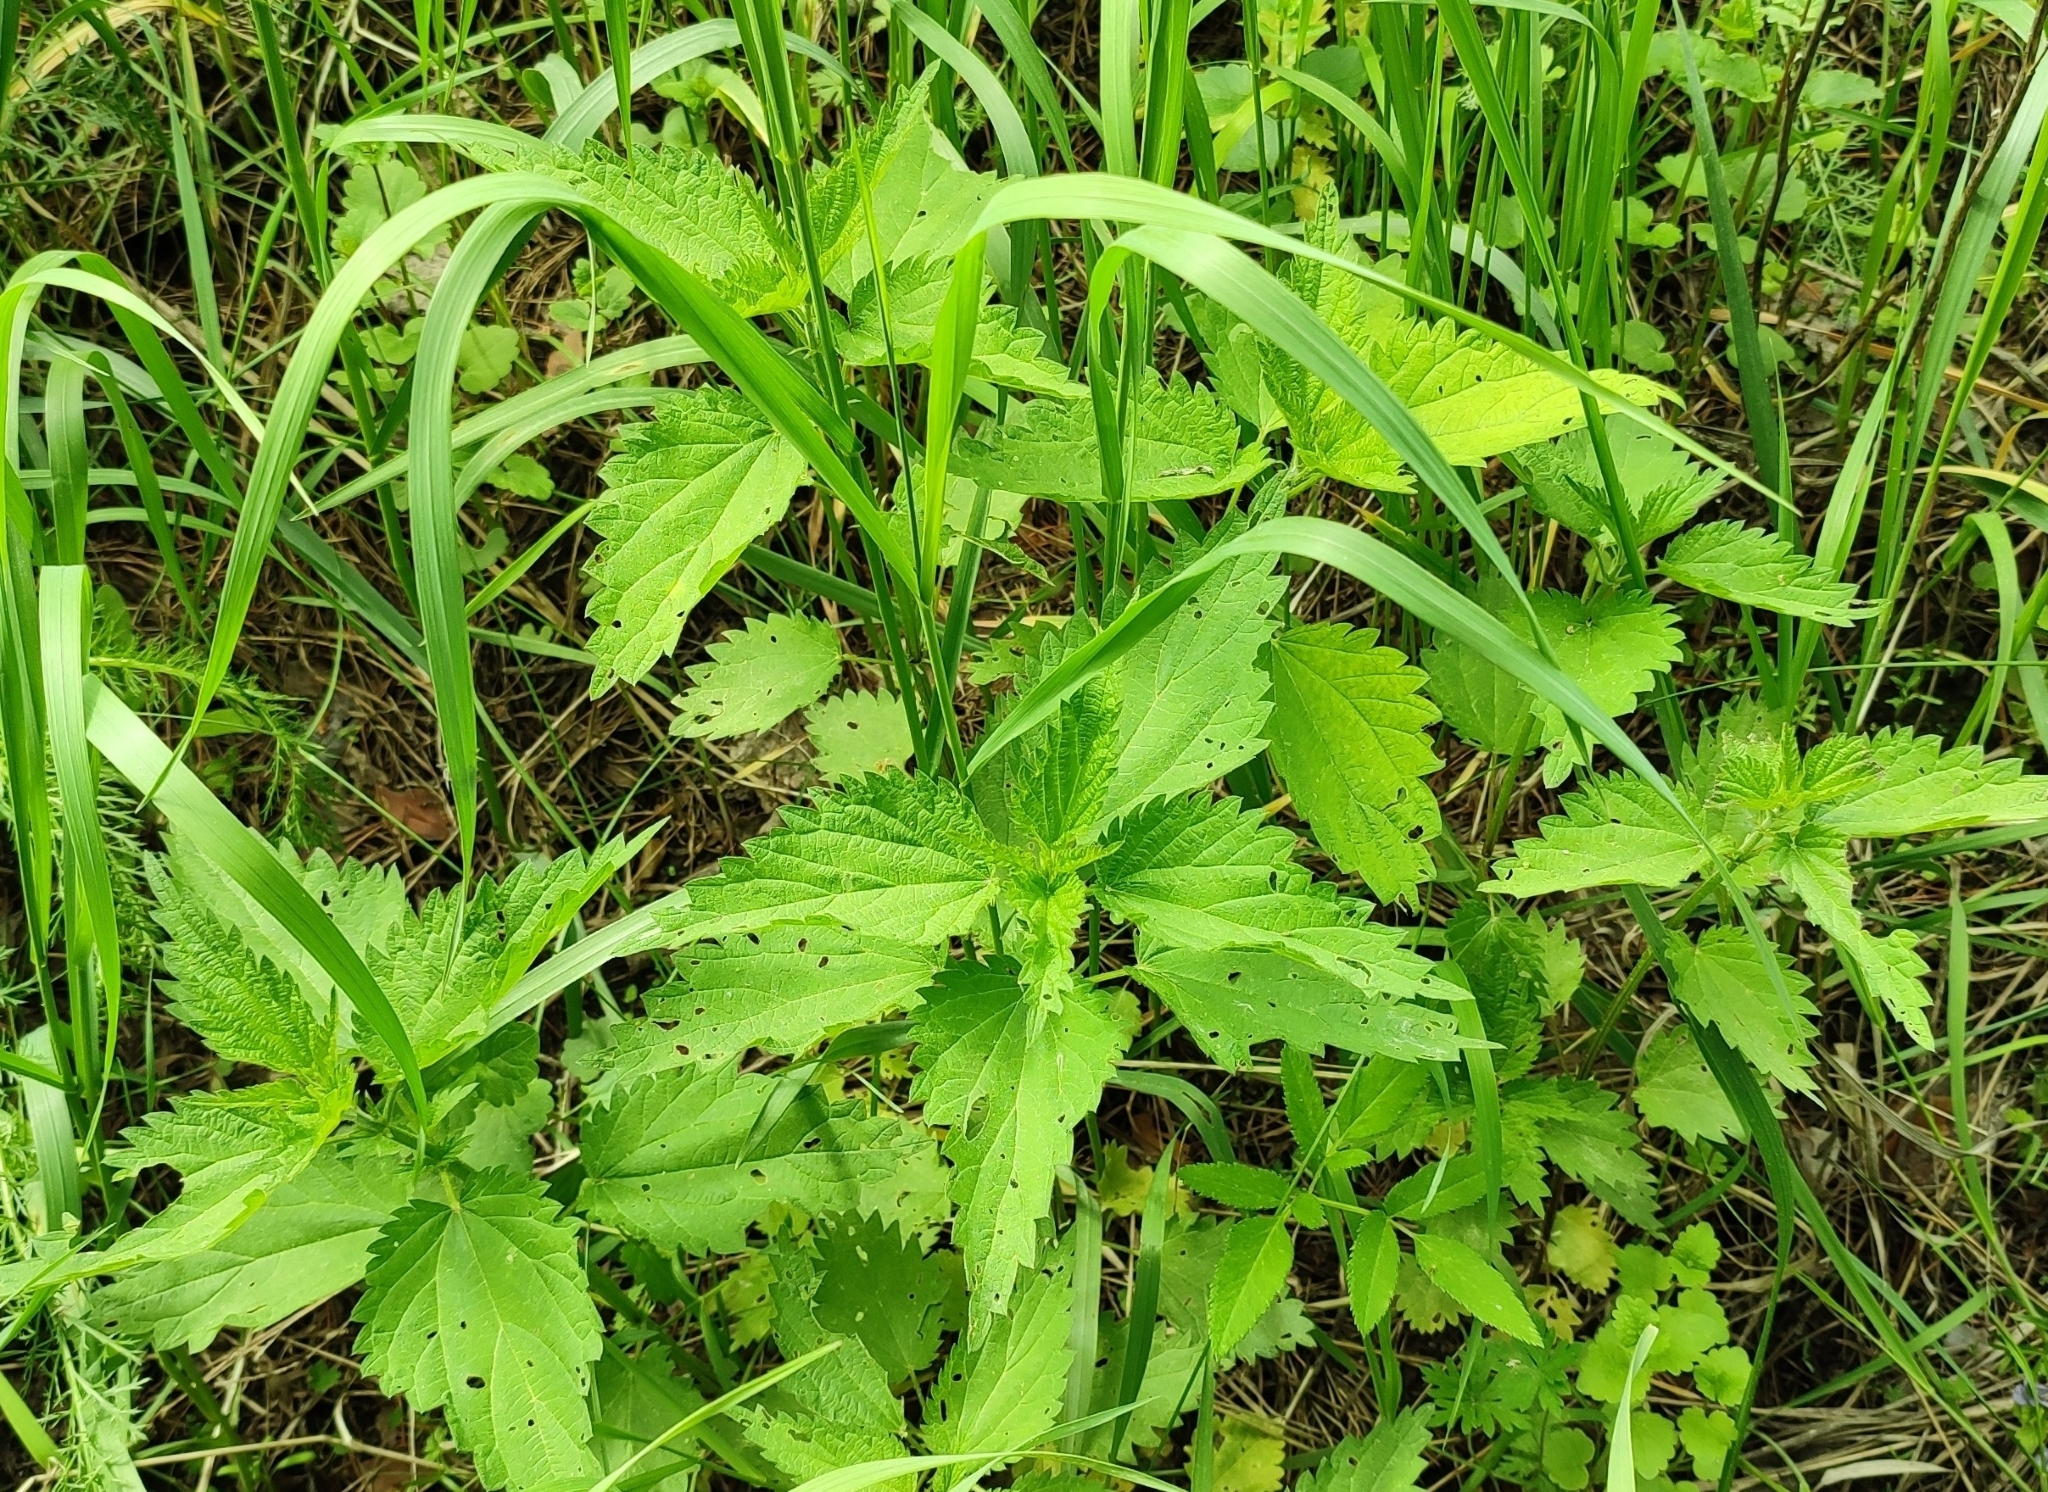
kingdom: Plantae
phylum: Tracheophyta
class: Magnoliopsida
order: Rosales
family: Urticaceae
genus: Urtica
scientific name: Urtica dioica
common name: Common nettle
